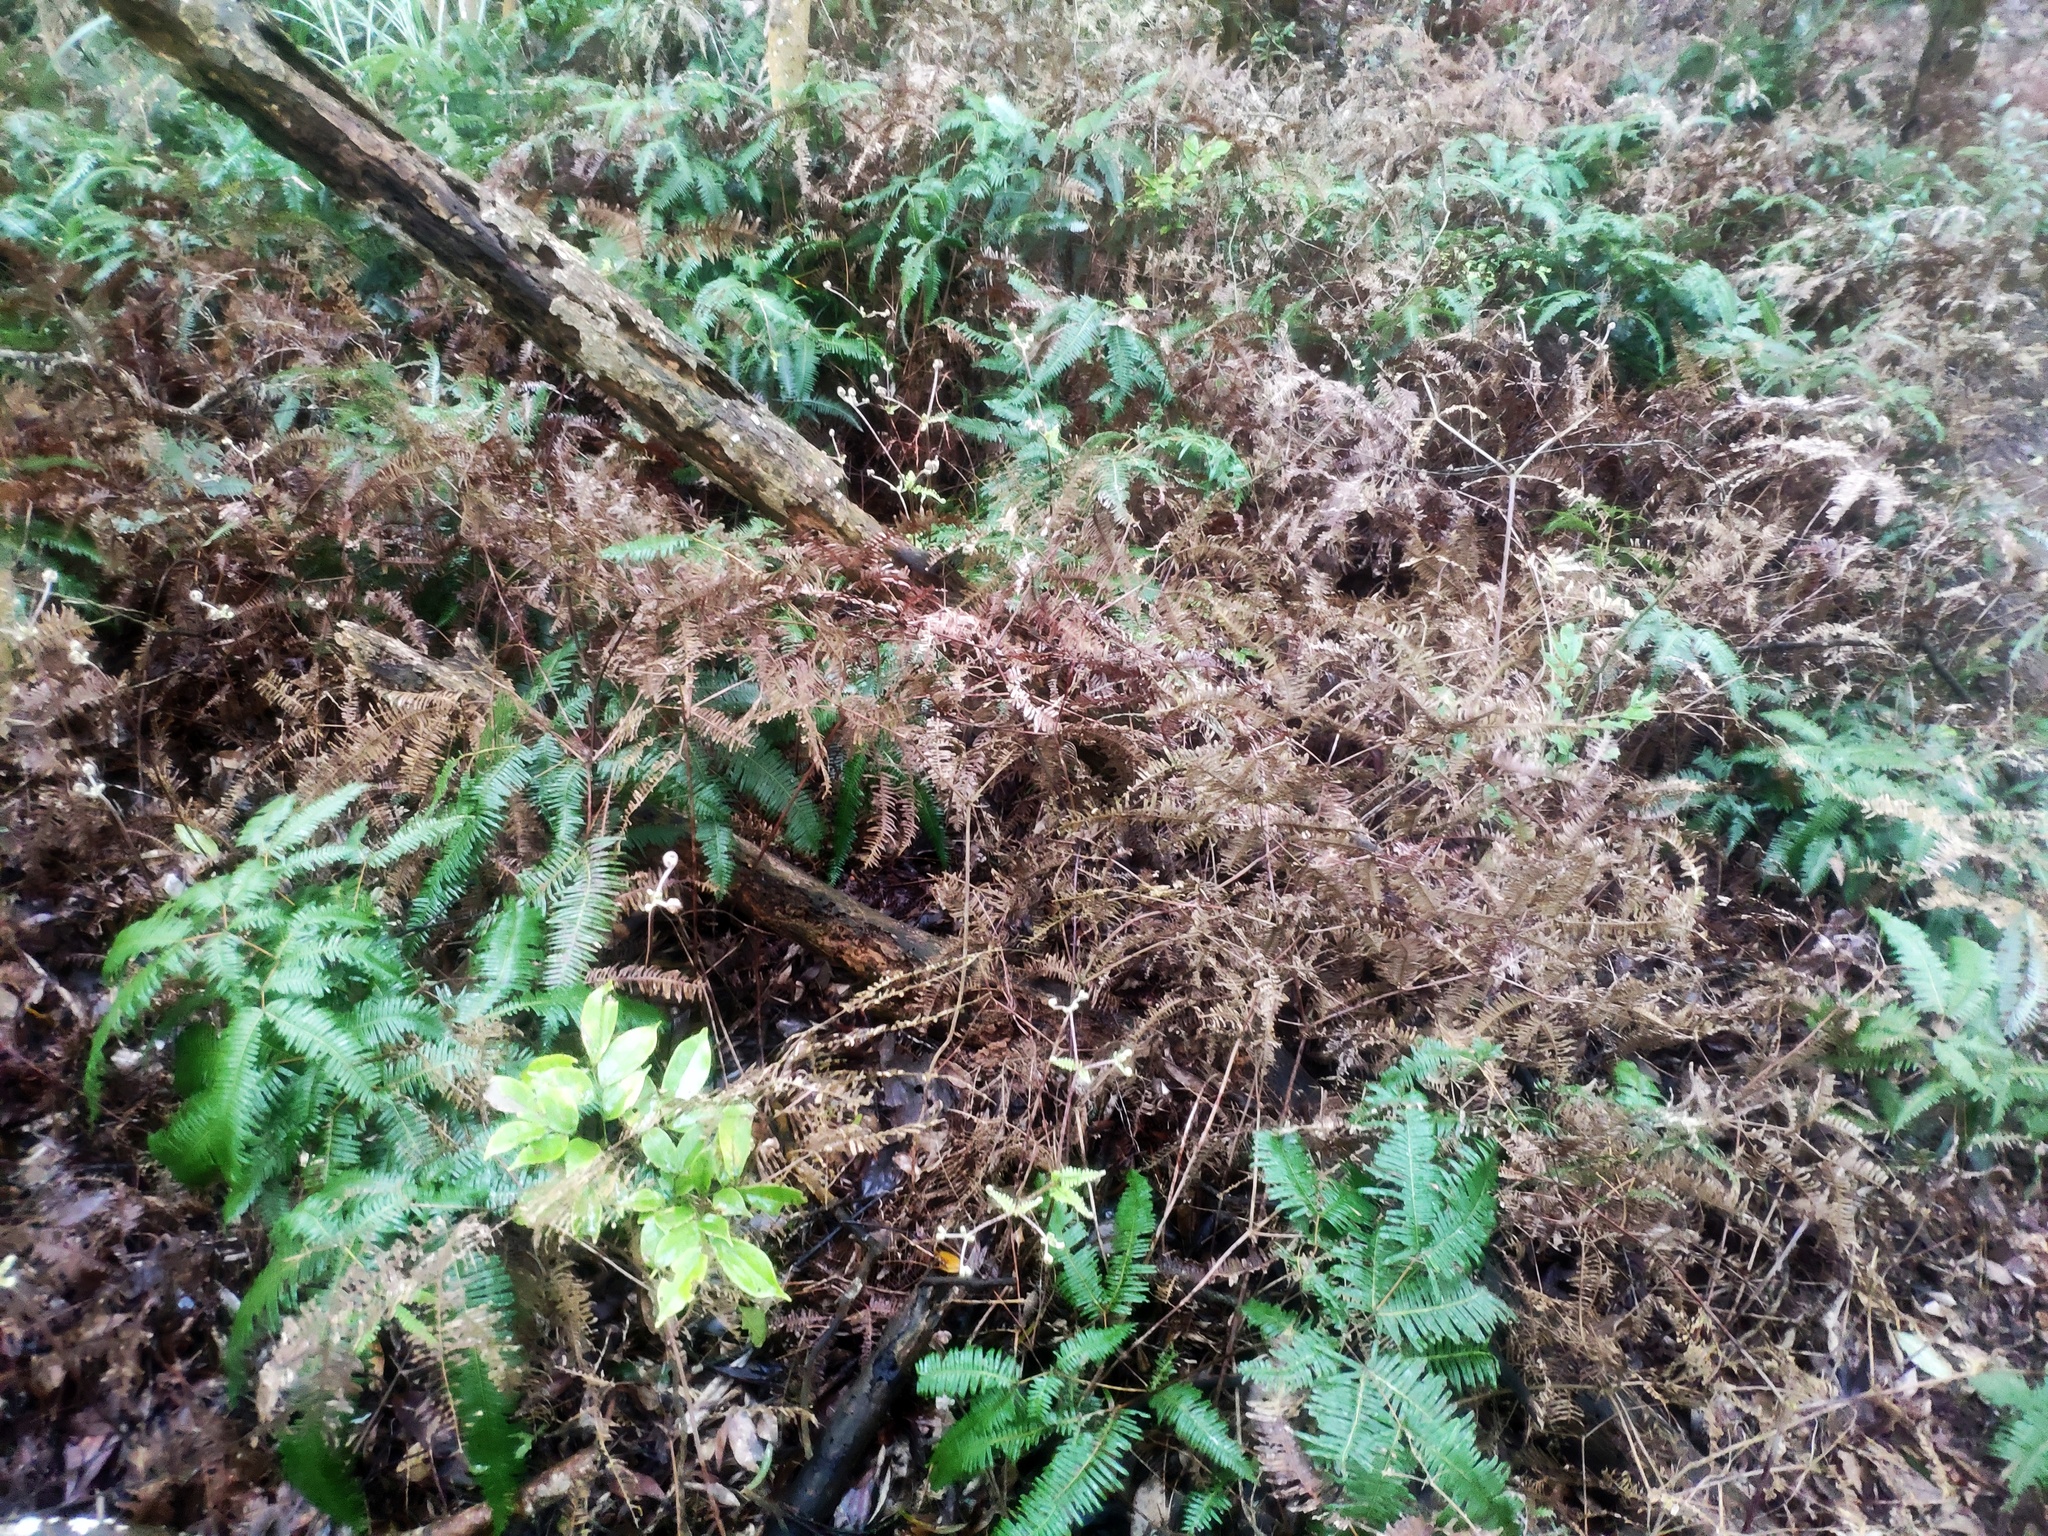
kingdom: Plantae
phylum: Tracheophyta
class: Polypodiopsida
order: Gleicheniales
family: Gleicheniaceae
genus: Dicranopteris
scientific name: Dicranopteris linearis
